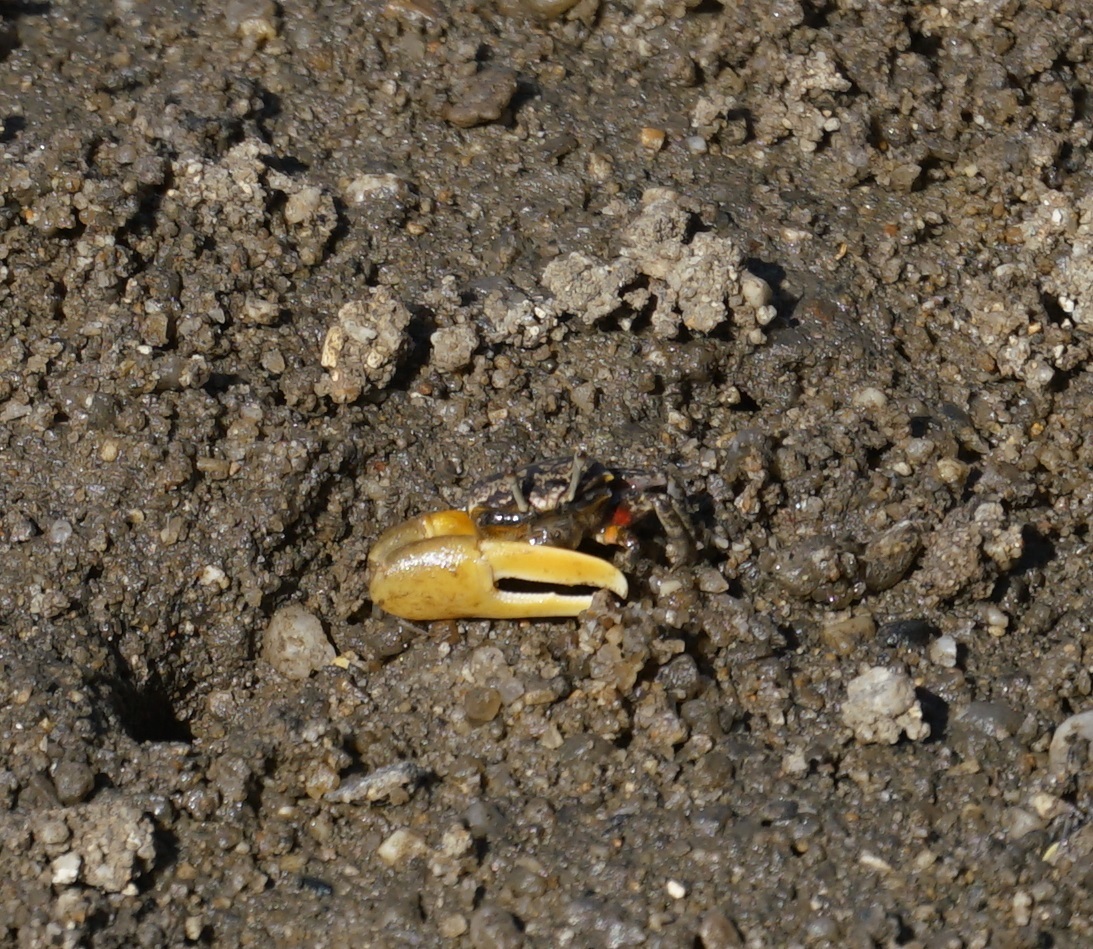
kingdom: Animalia
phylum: Arthropoda
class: Malacostraca
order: Decapoda
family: Ocypodidae
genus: Austruca
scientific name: Austruca perplexa
